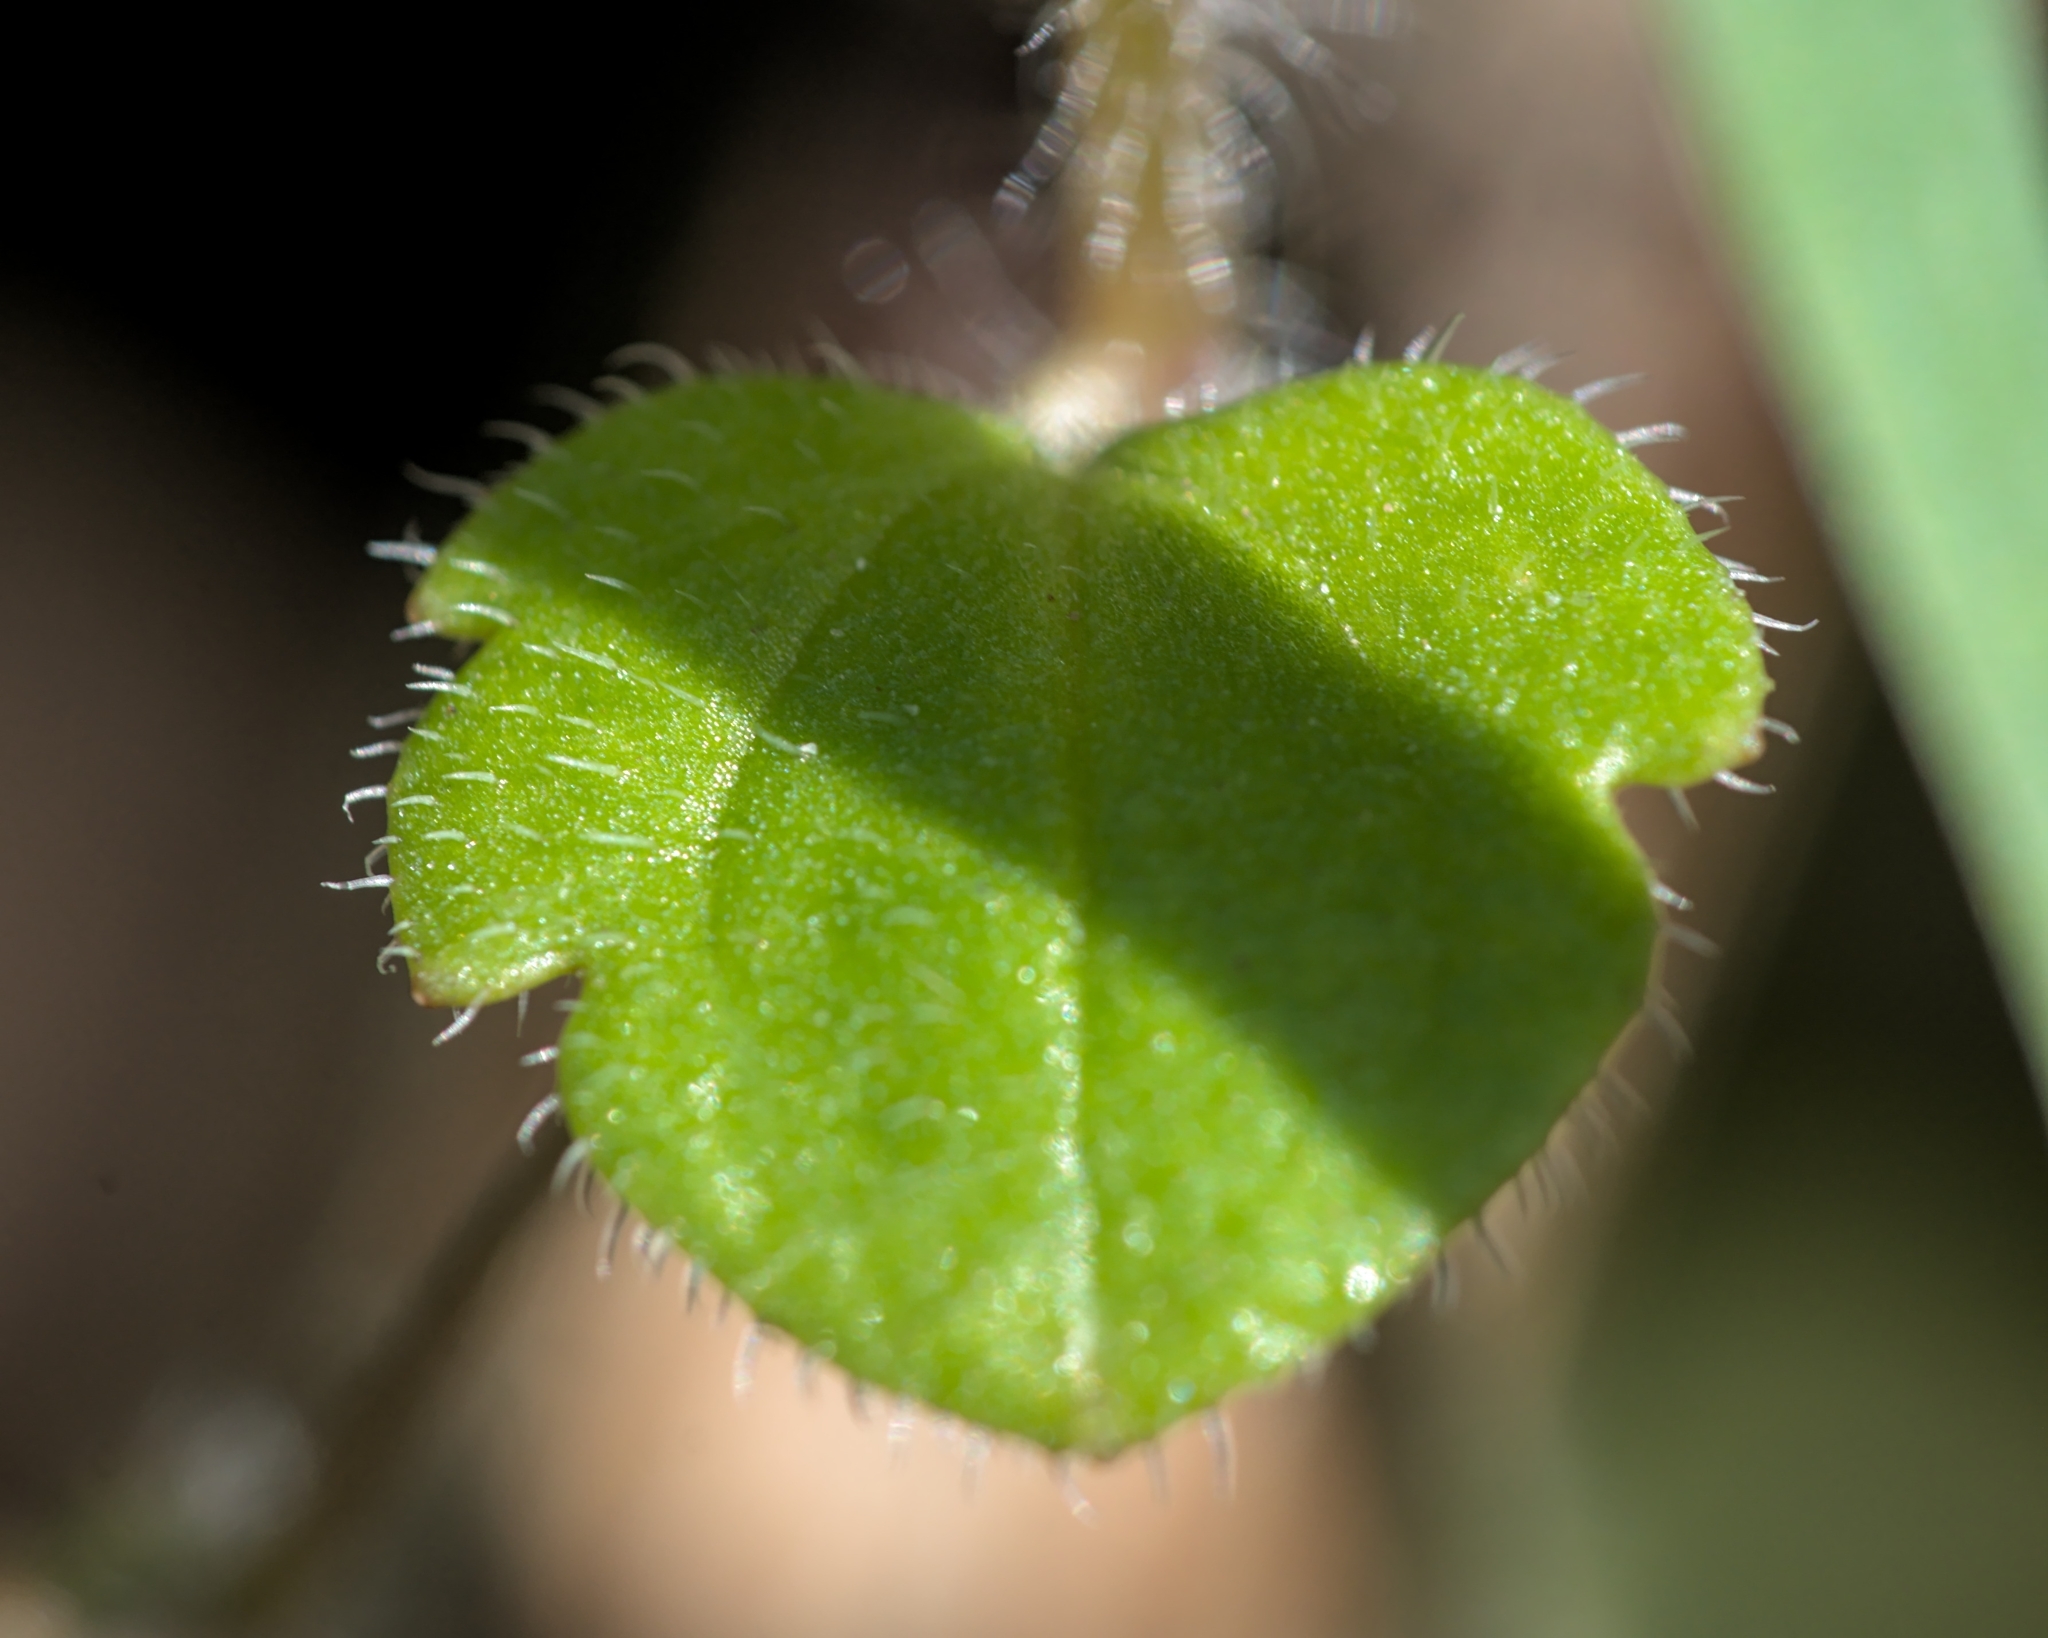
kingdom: Plantae
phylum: Tracheophyta
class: Magnoliopsida
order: Lamiales
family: Plantaginaceae
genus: Veronica
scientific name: Veronica sublobata
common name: False ivy-leaved speedwell
